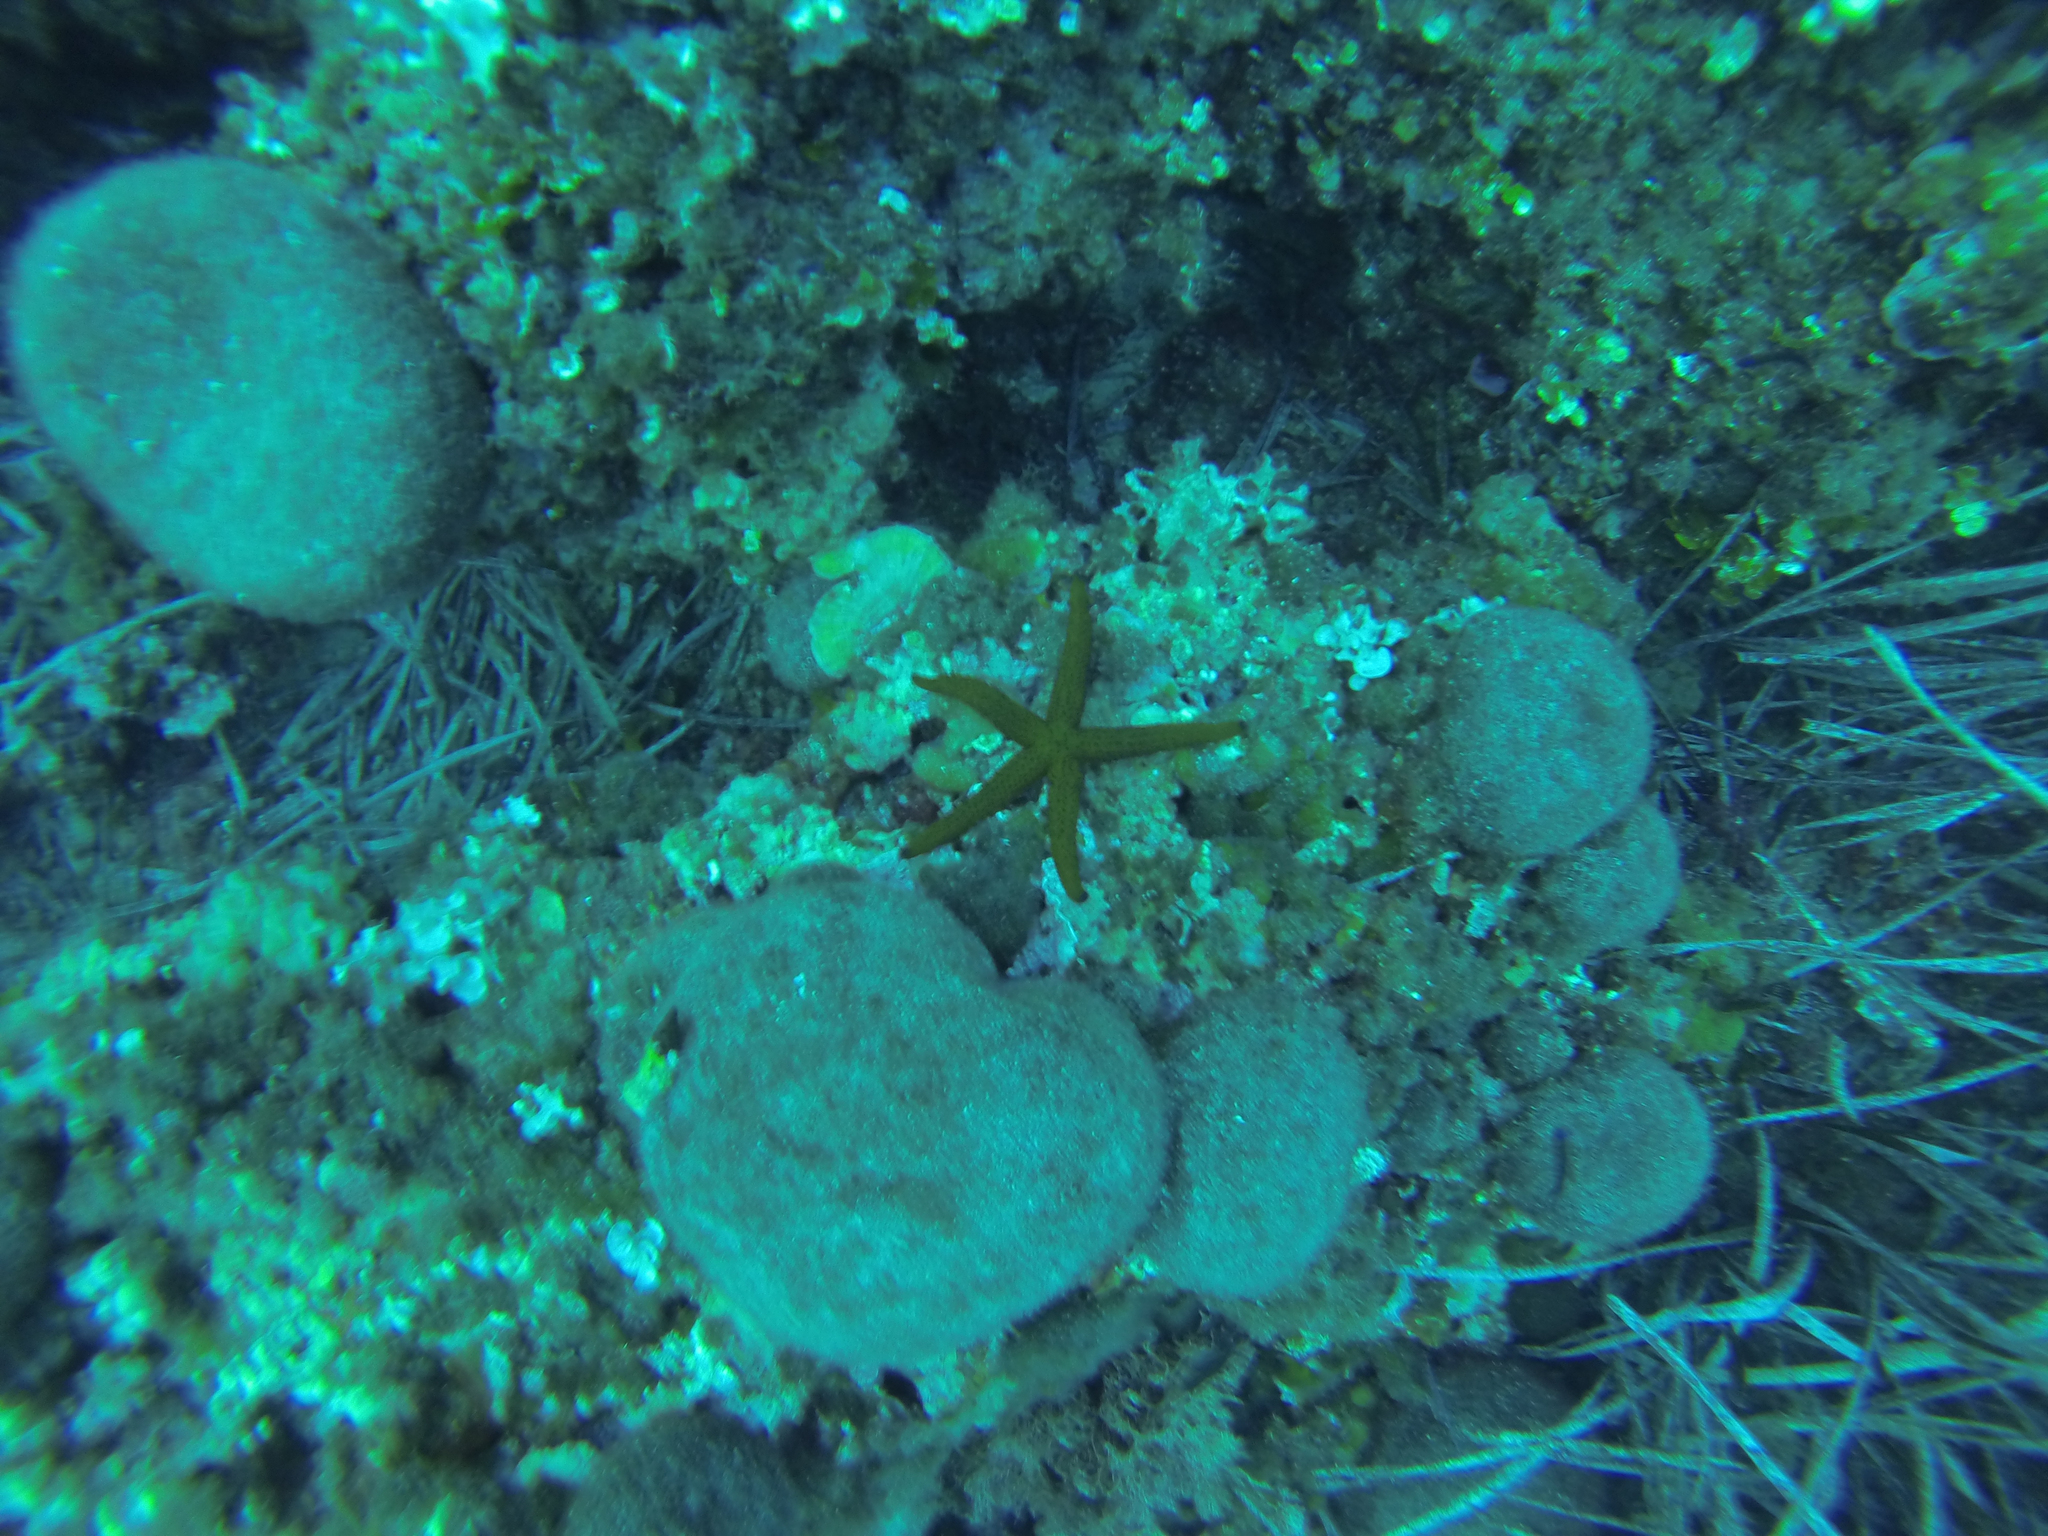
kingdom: Animalia
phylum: Echinodermata
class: Asteroidea
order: Spinulosida
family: Echinasteridae
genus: Echinaster
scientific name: Echinaster sepositus
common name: Red starfish
